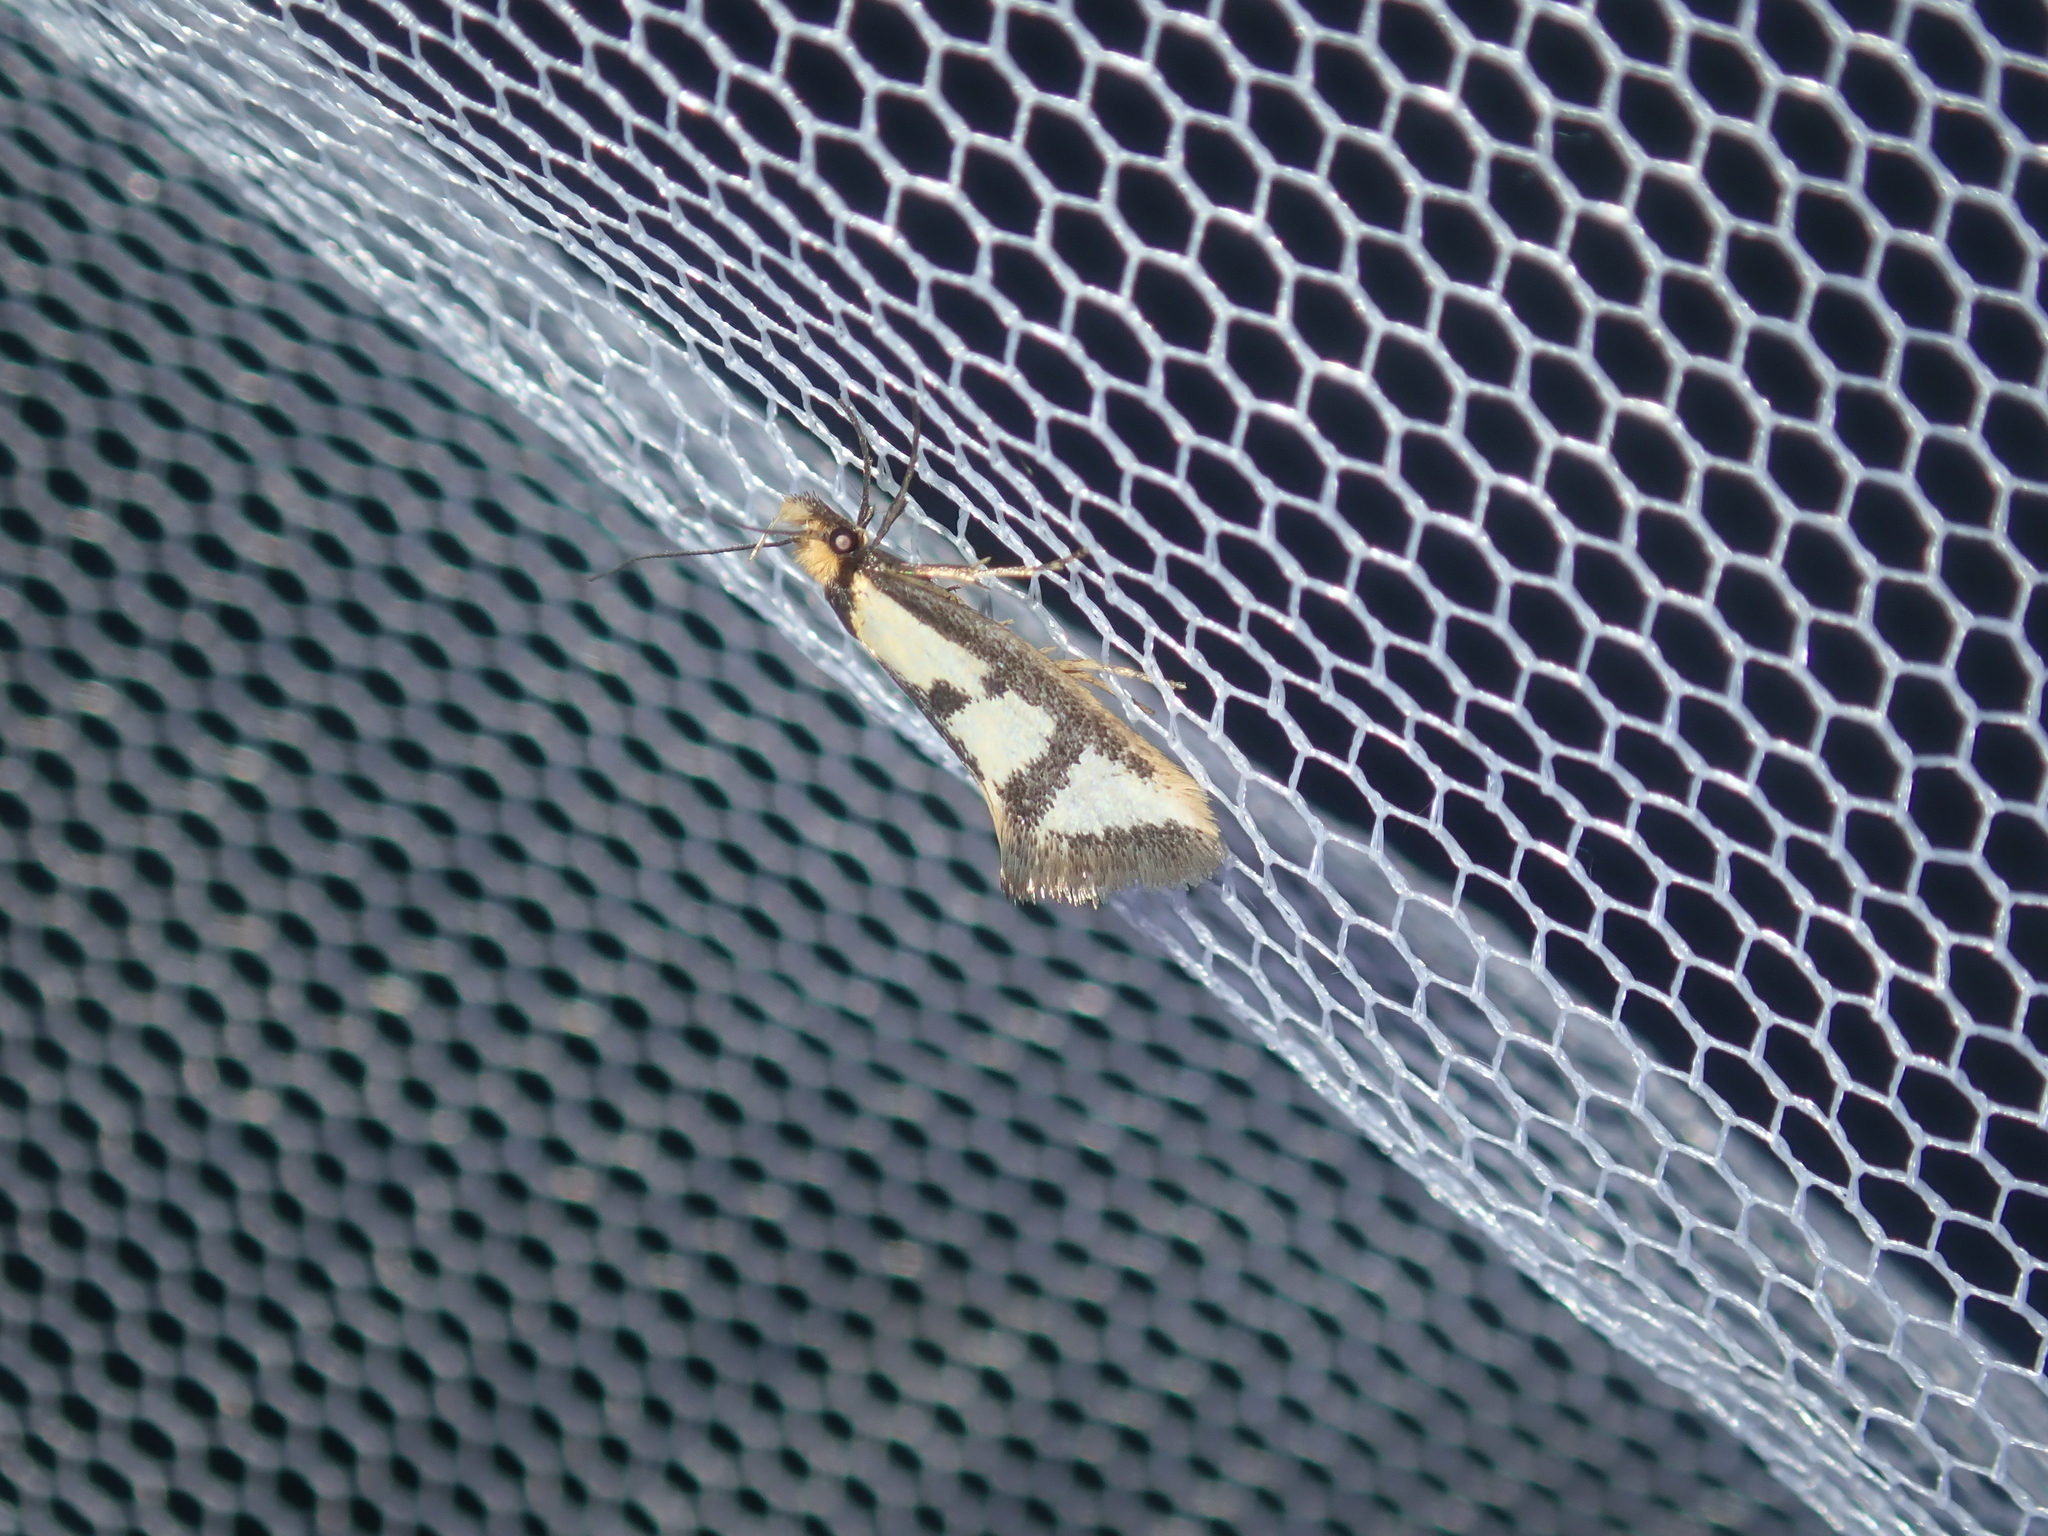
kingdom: Animalia
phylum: Arthropoda
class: Insecta
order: Lepidoptera
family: Oecophoridae
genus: Diapatela
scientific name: Diapatela semophanes
